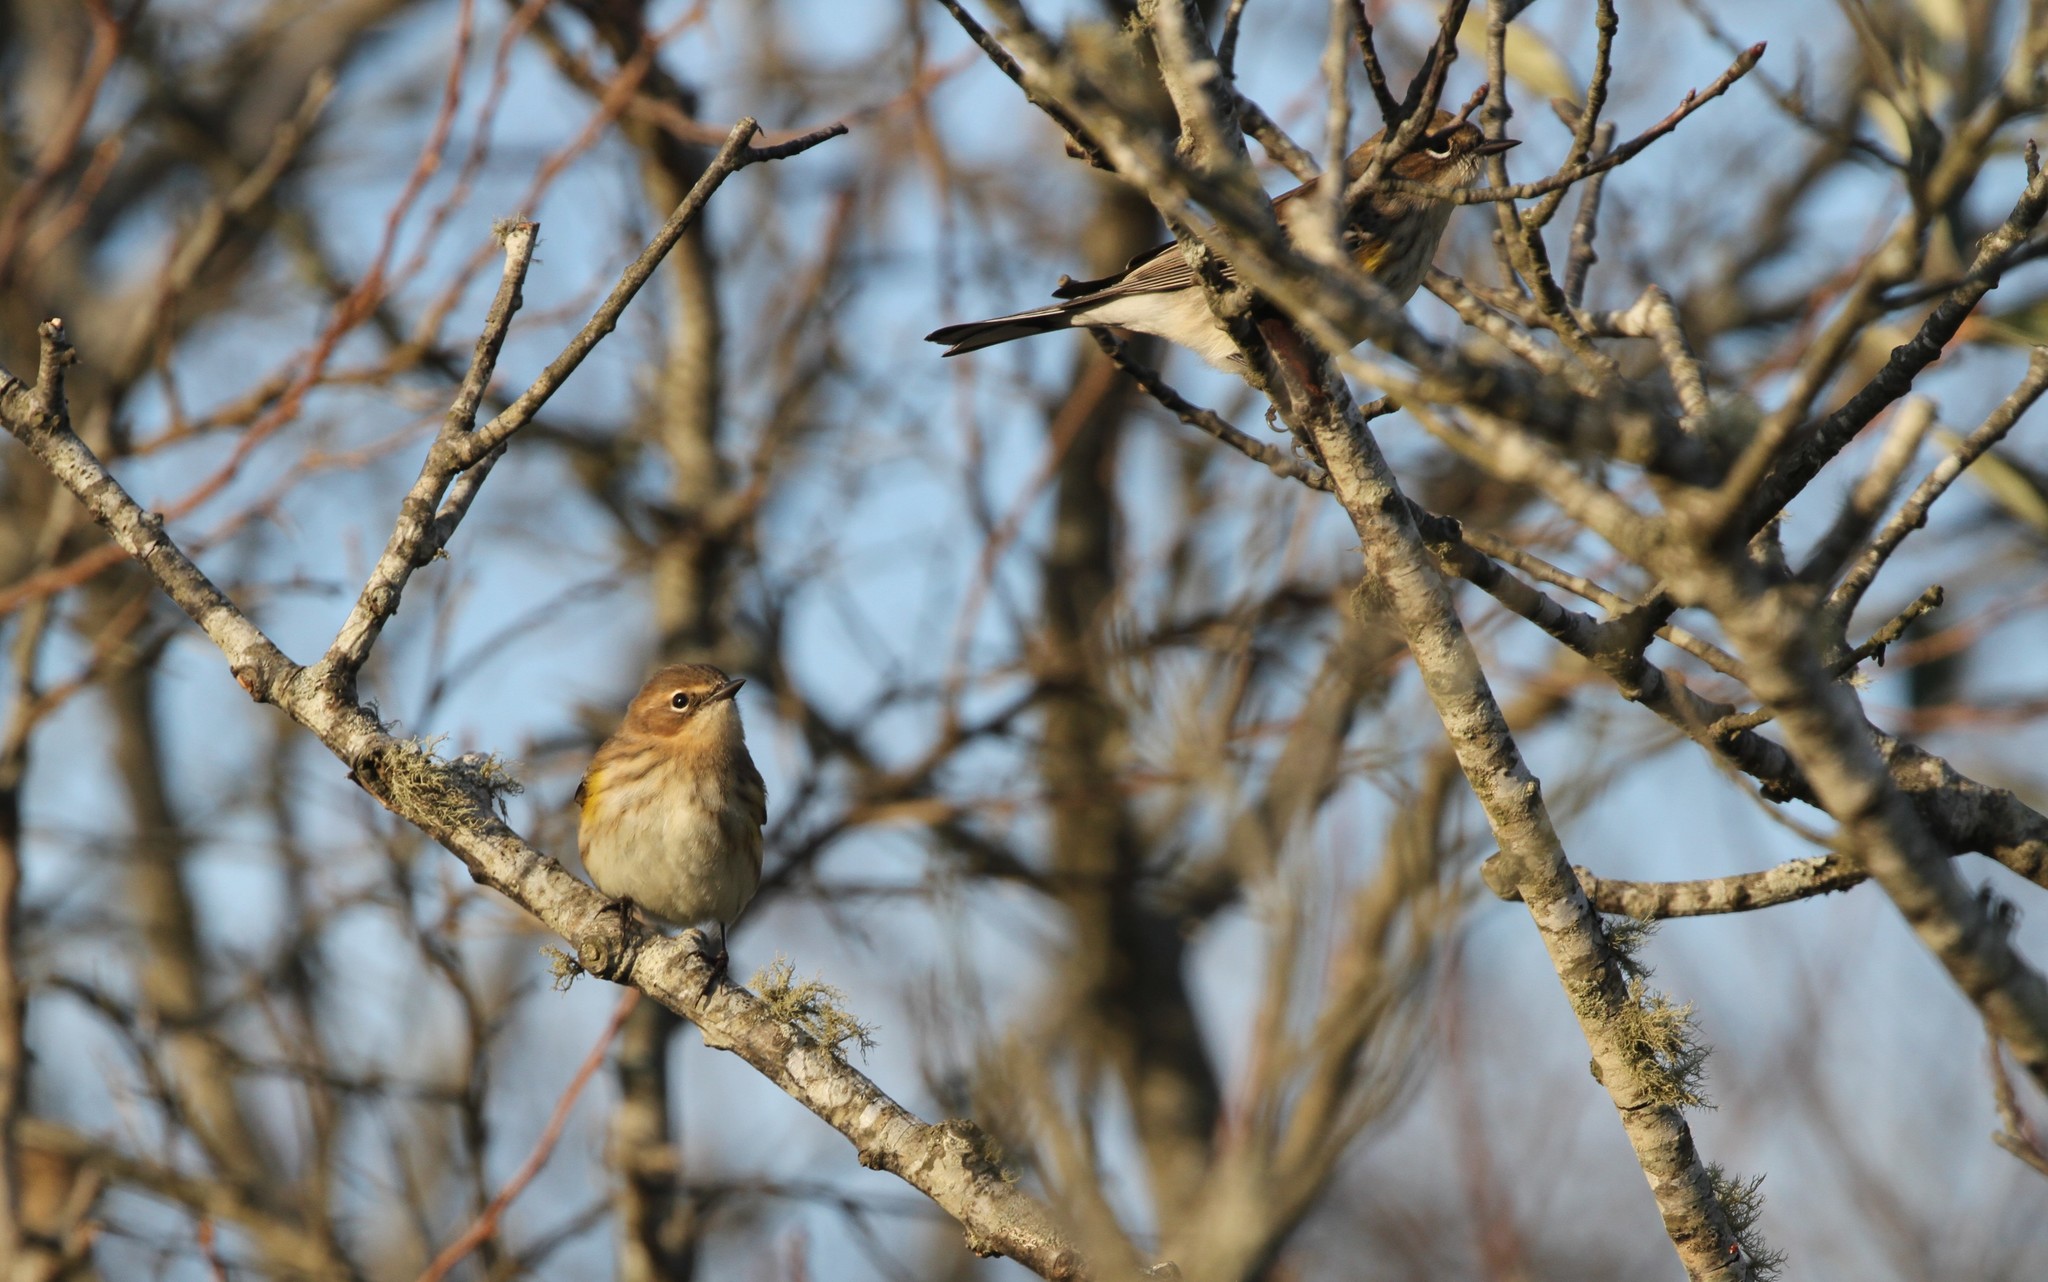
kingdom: Animalia
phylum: Chordata
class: Aves
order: Passeriformes
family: Parulidae
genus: Setophaga
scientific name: Setophaga coronata
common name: Myrtle warbler
